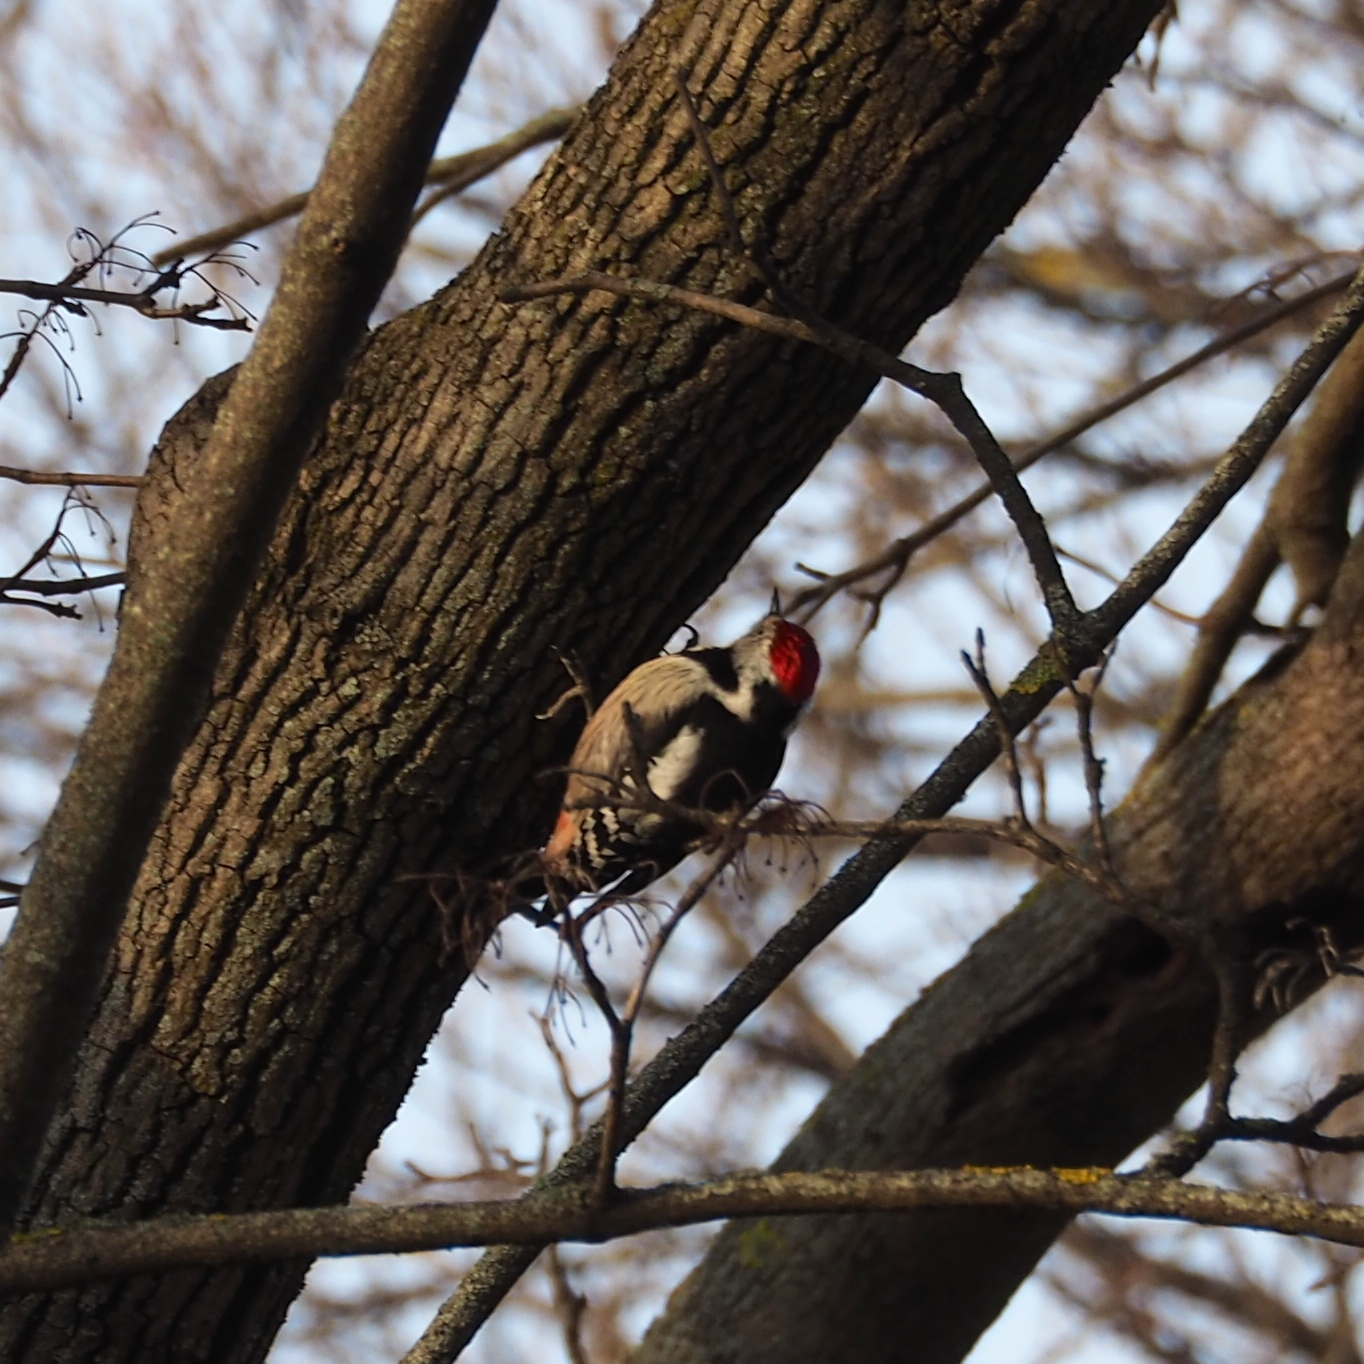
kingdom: Animalia
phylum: Chordata
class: Aves
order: Piciformes
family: Picidae
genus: Dendrocoptes
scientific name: Dendrocoptes medius
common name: Middle spotted woodpecker
